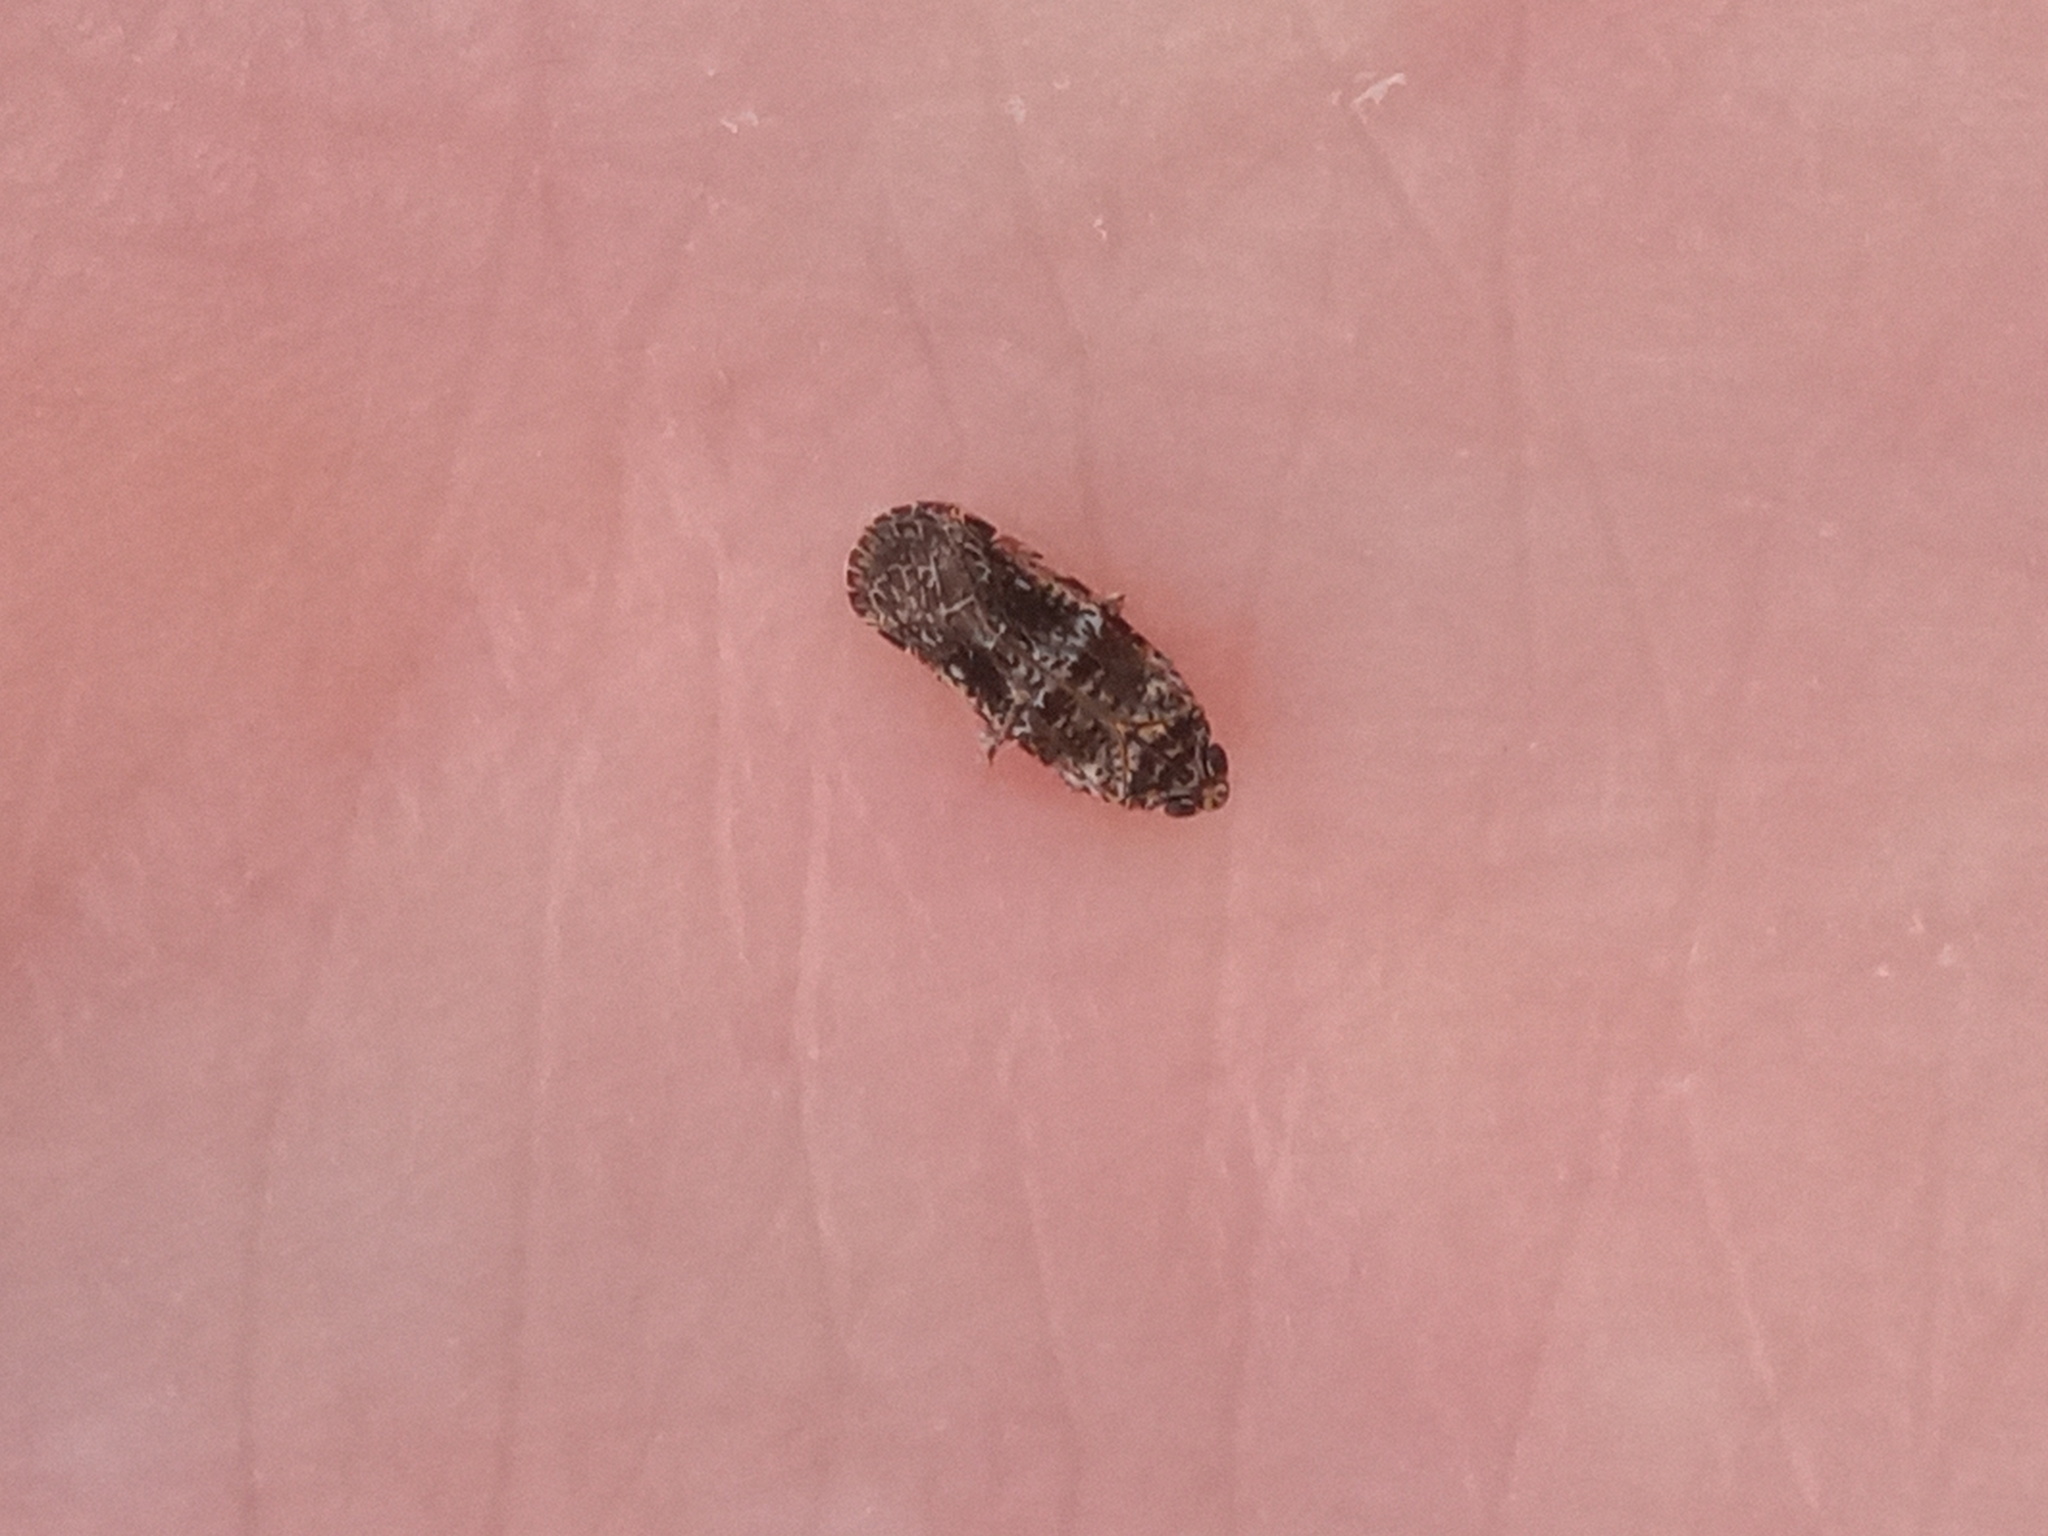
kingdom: Animalia
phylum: Arthropoda
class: Insecta
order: Hemiptera
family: Achilidae
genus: Catonia
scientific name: Catonia texana
